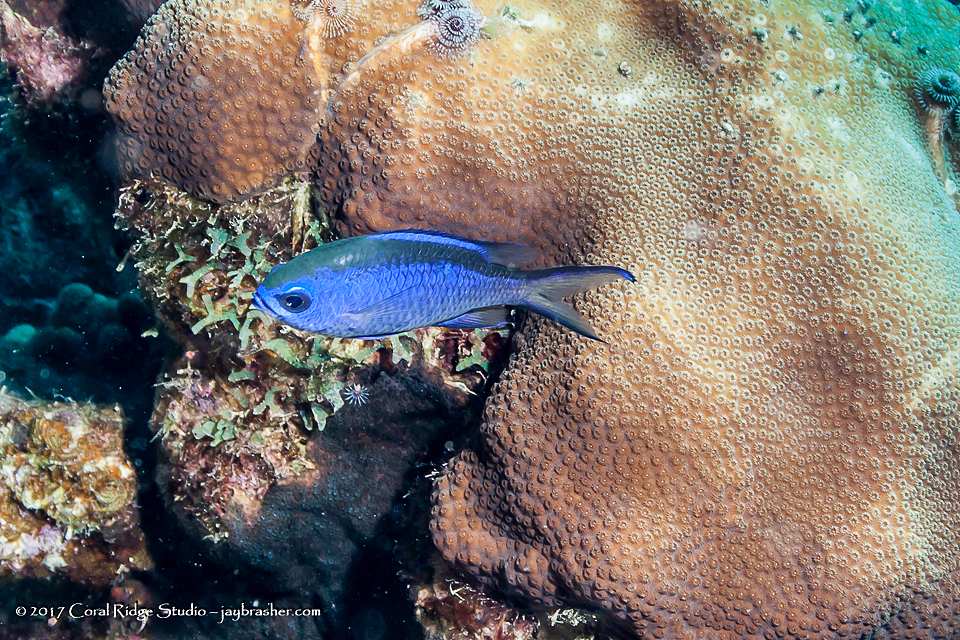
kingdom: Animalia
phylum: Chordata
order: Perciformes
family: Pomacentridae
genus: Chromis
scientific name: Chromis cyanea
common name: Blue chromis
